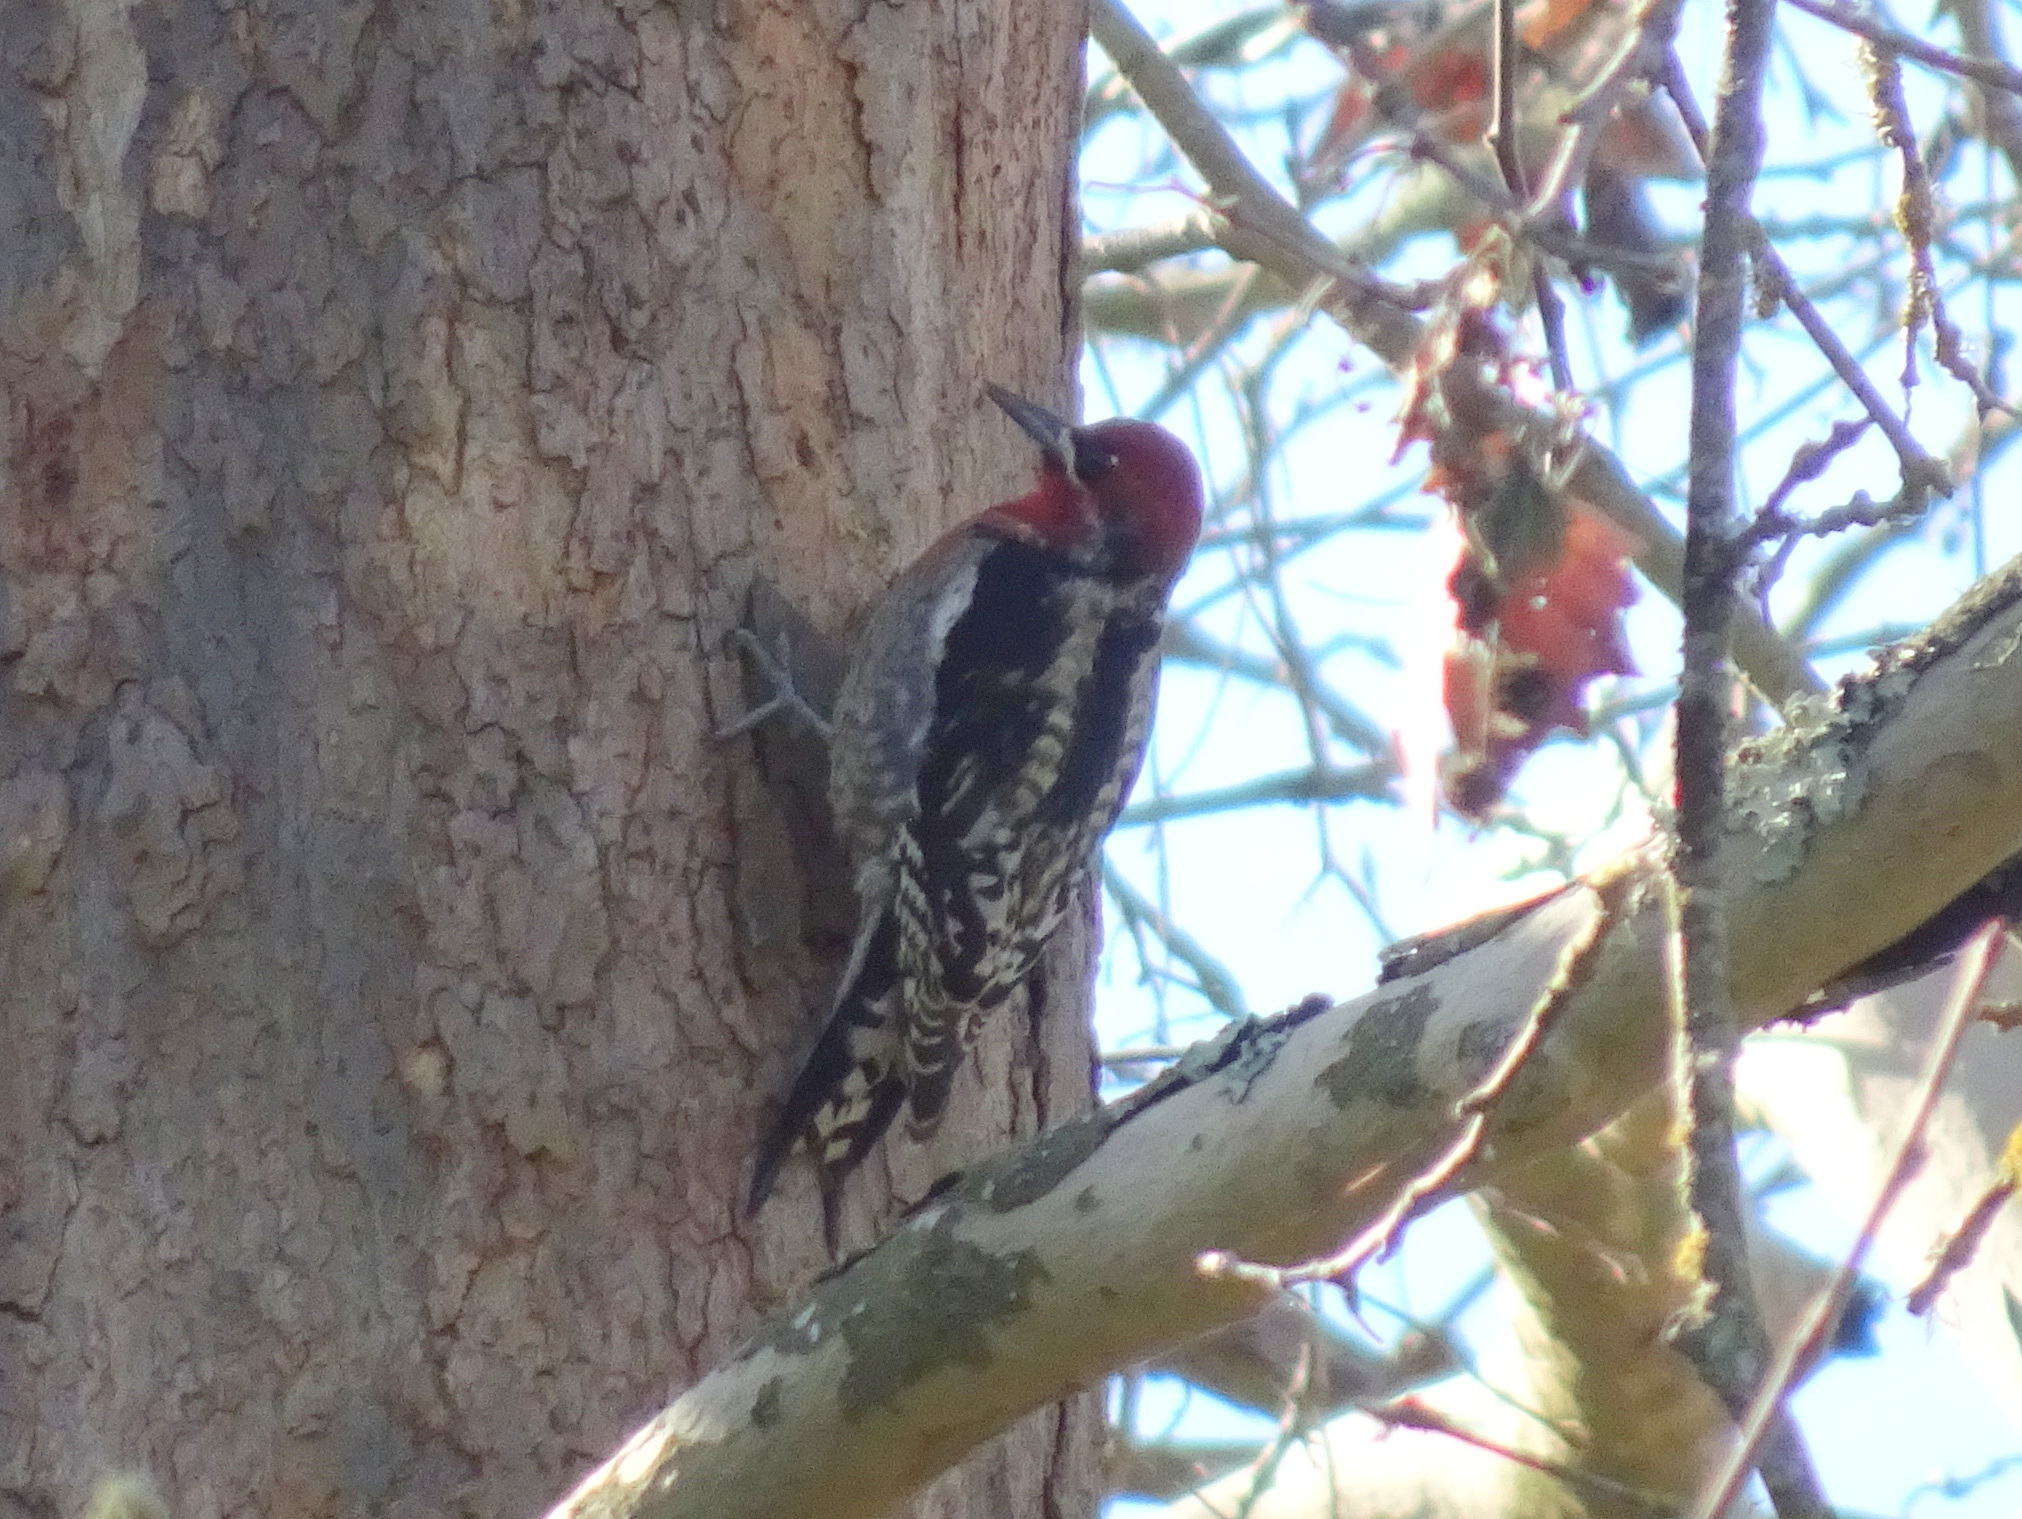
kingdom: Animalia
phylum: Chordata
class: Aves
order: Piciformes
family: Picidae
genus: Sphyrapicus
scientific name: Sphyrapicus ruber
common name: Red-breasted sapsucker
